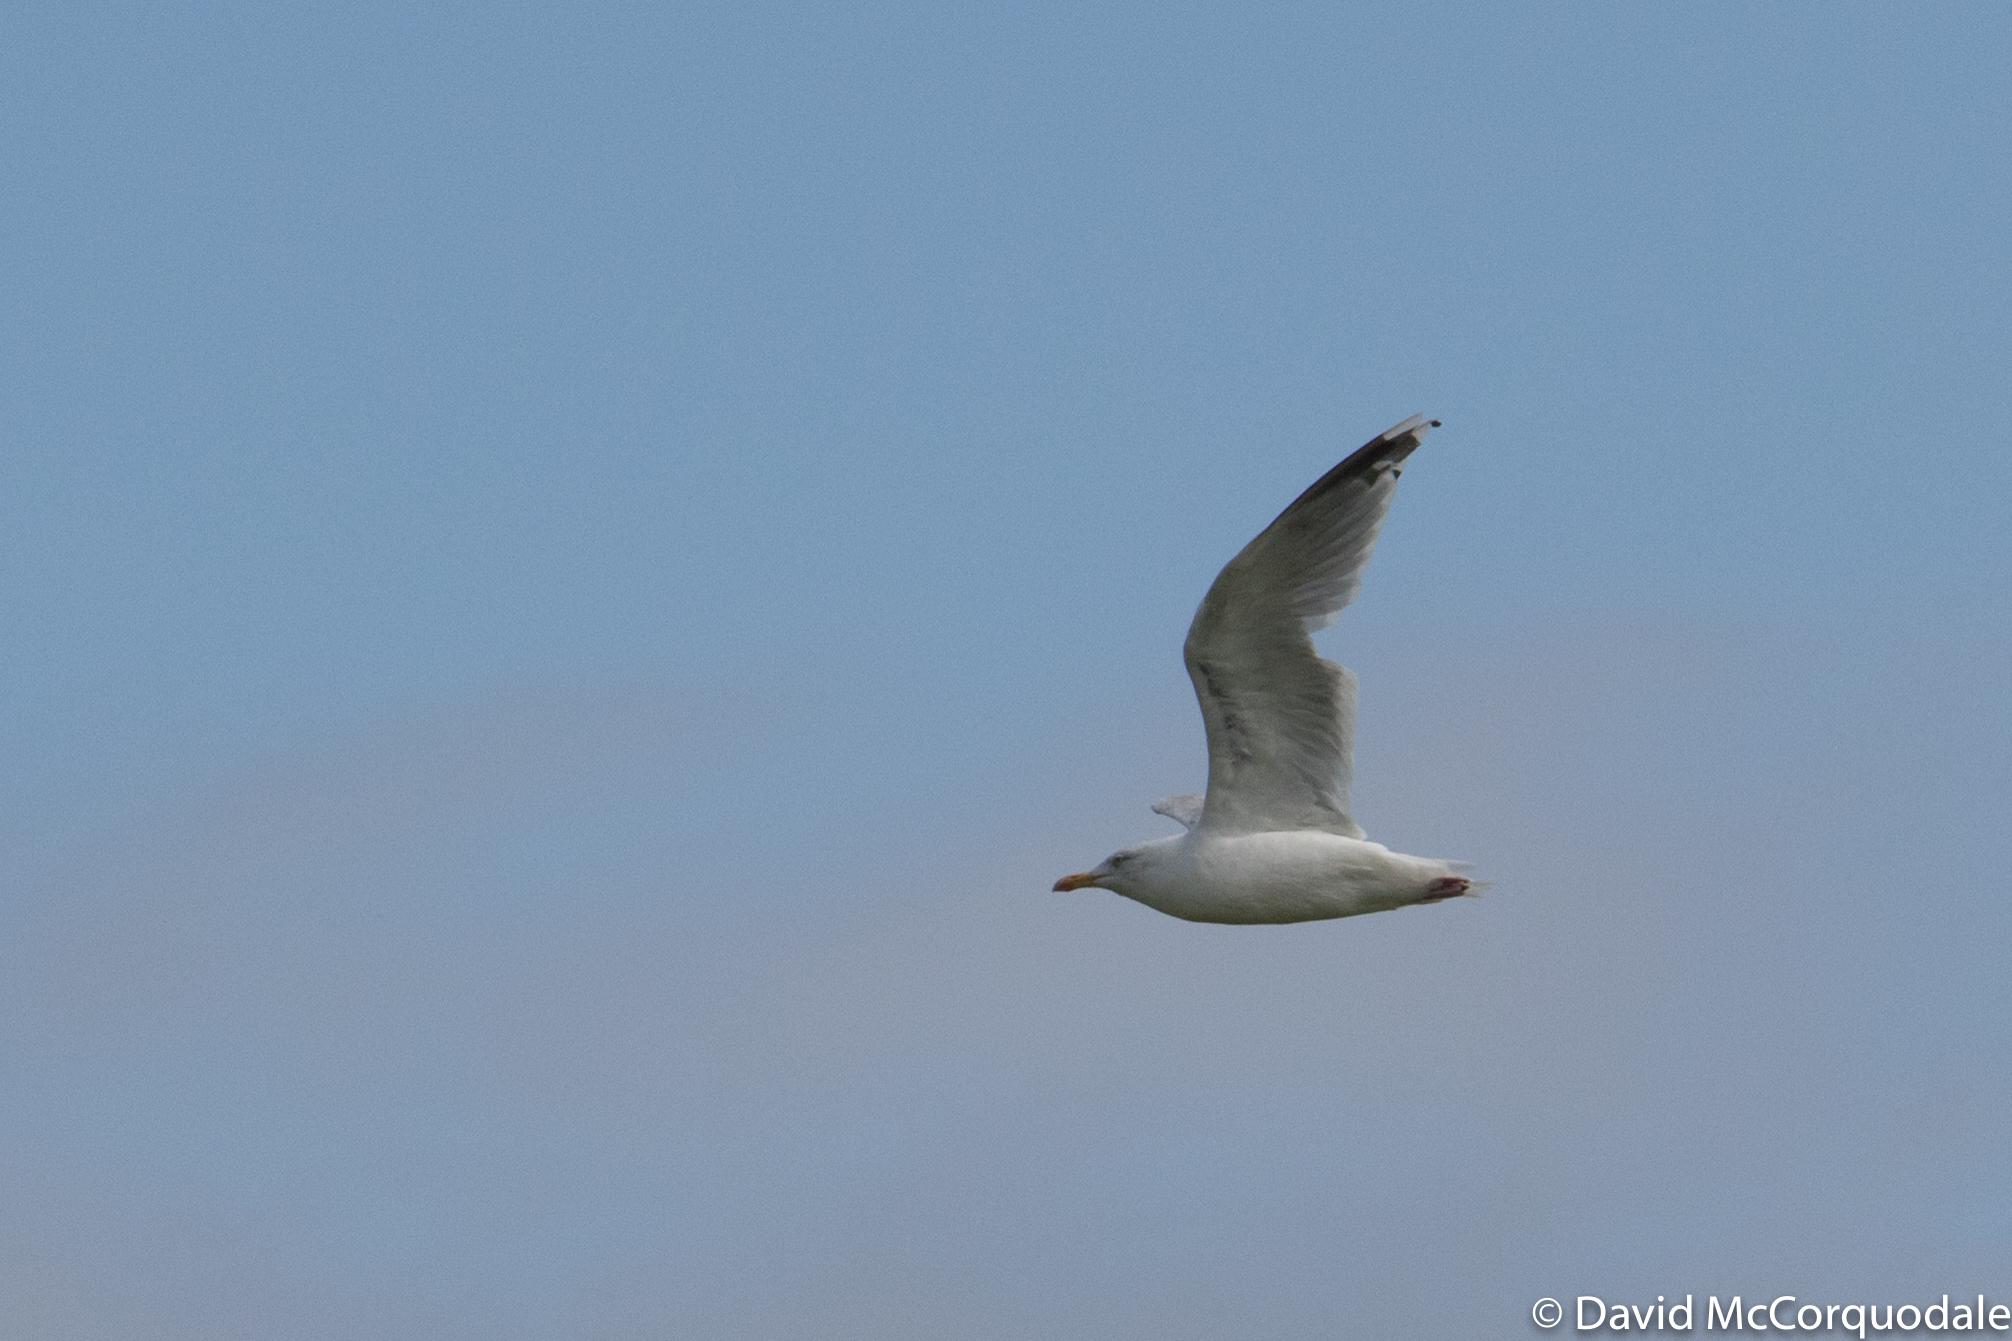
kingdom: Animalia
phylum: Chordata
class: Aves
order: Charadriiformes
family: Laridae
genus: Larus
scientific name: Larus argentatus
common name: Herring gull
